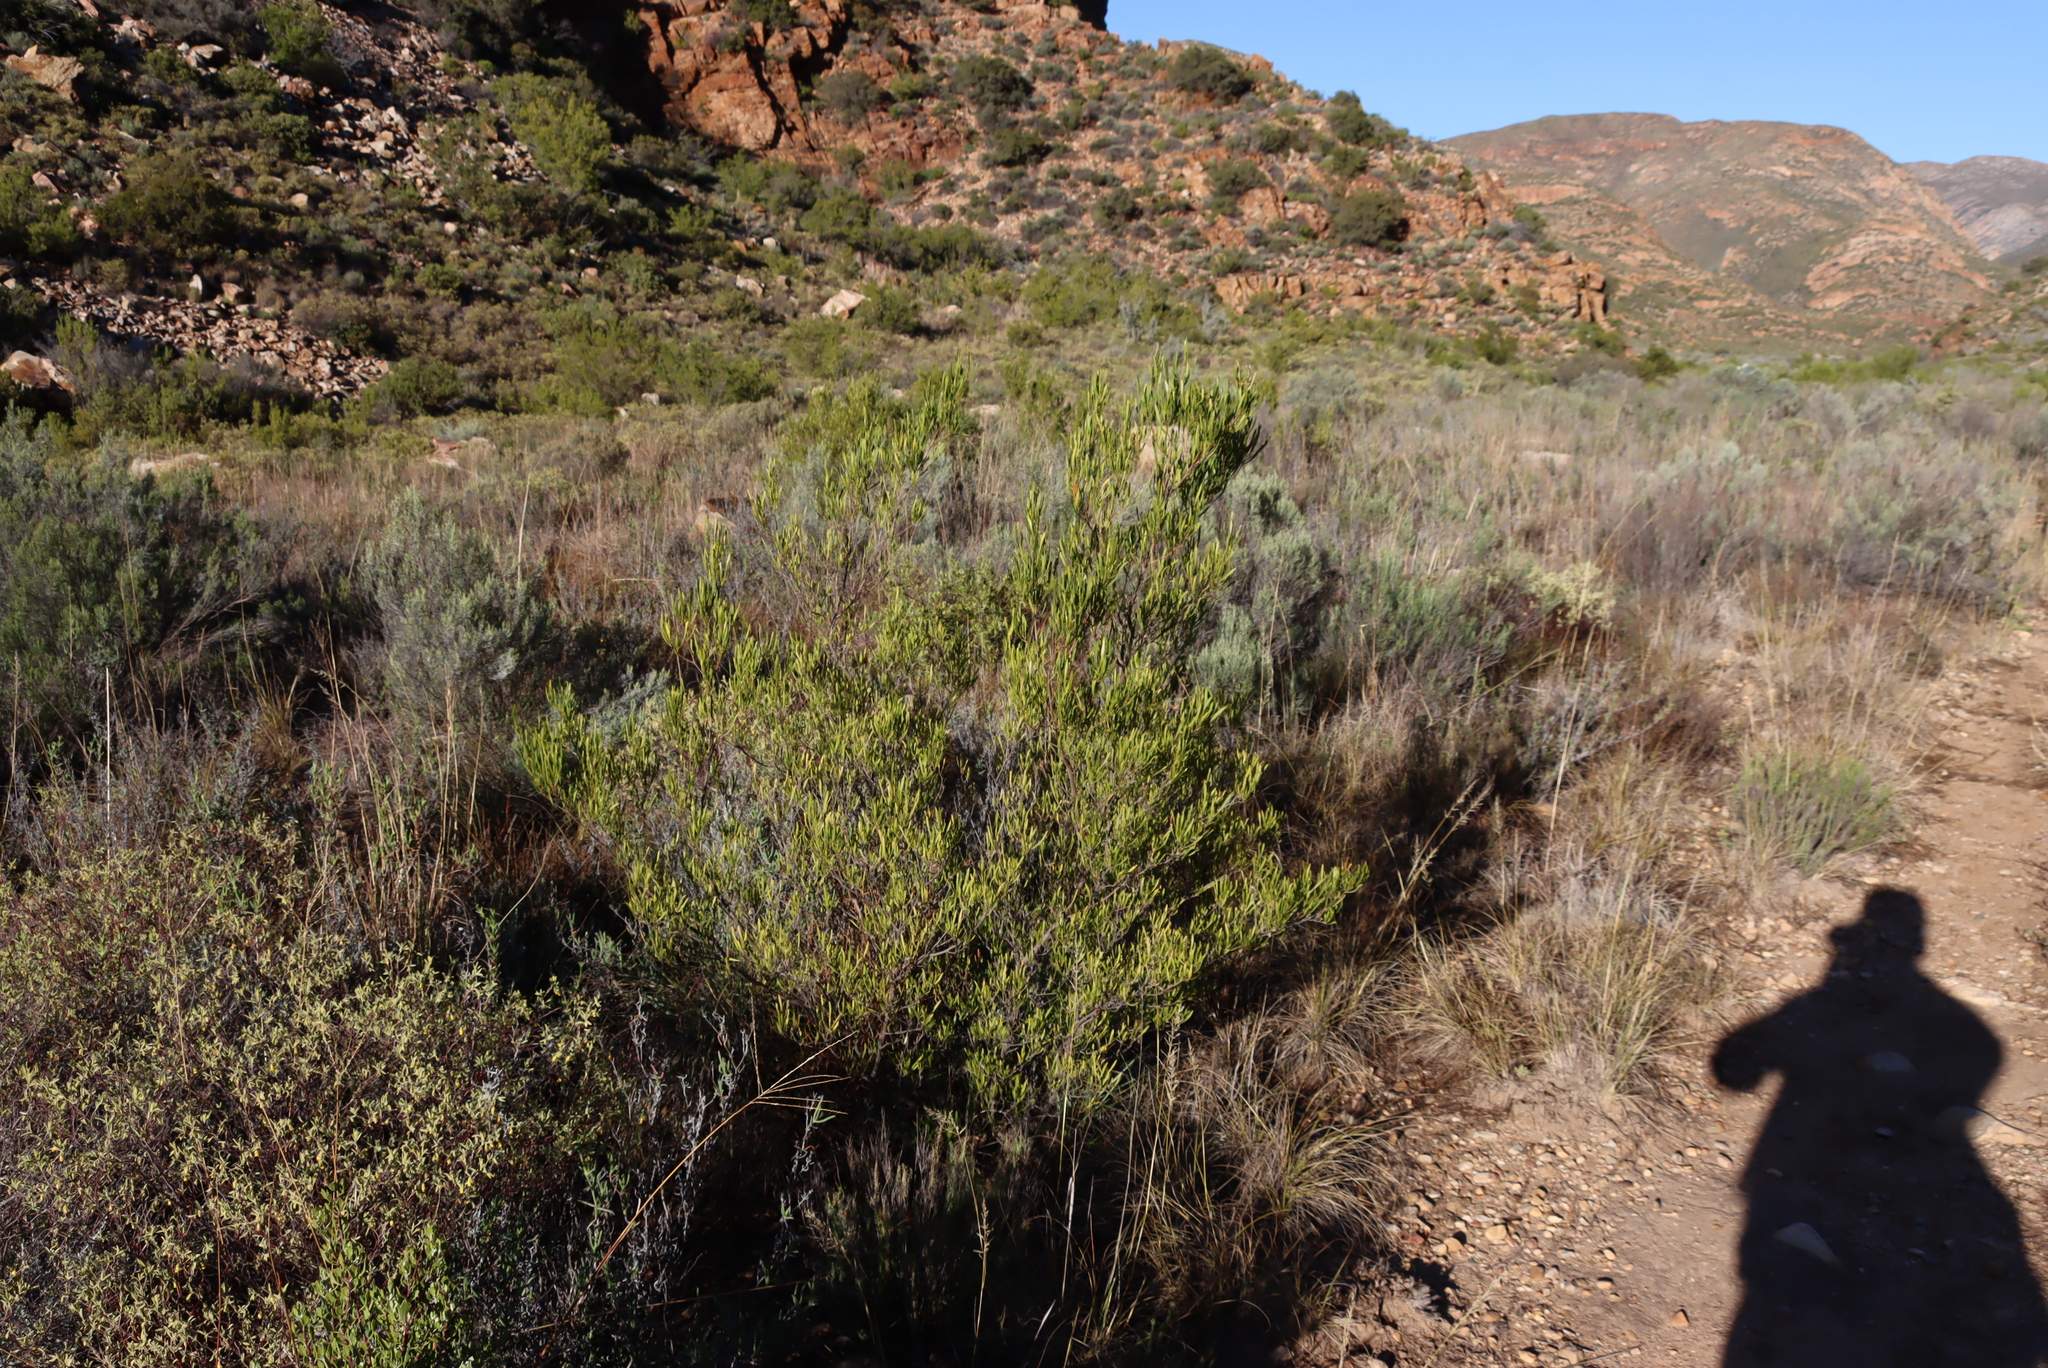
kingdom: Plantae
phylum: Tracheophyta
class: Magnoliopsida
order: Sapindales
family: Sapindaceae
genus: Dodonaea
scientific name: Dodonaea viscosa
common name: Hopbush
